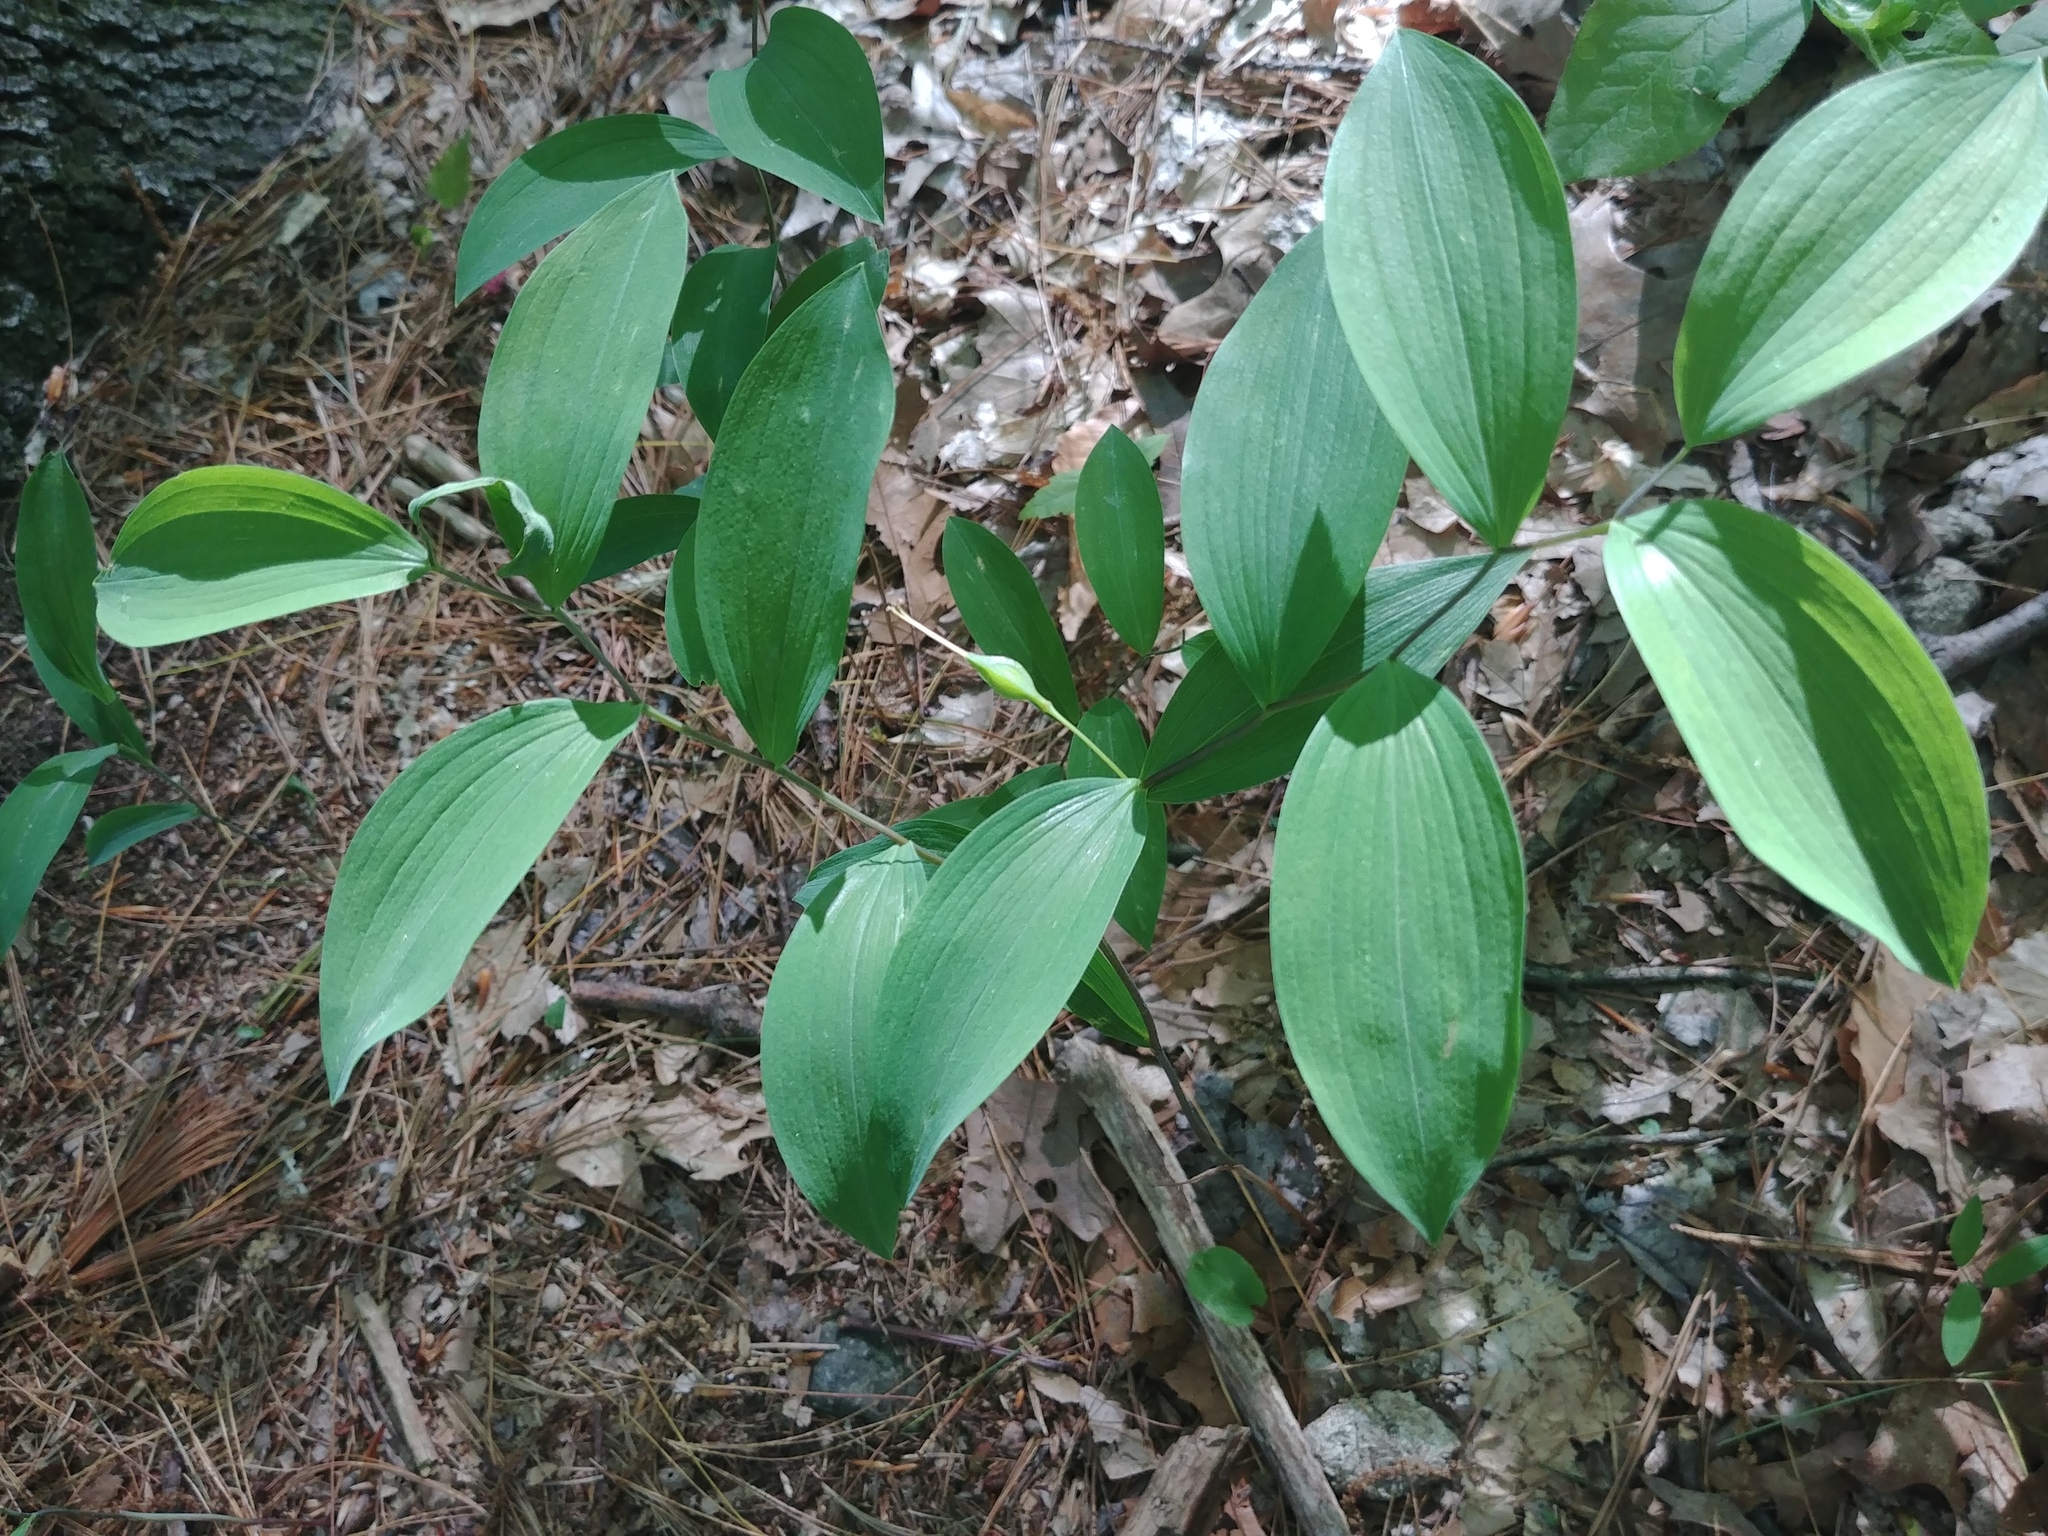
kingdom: Plantae
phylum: Tracheophyta
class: Liliopsida
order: Liliales
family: Colchicaceae
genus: Uvularia
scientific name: Uvularia sessilifolia
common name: Straw-lily
